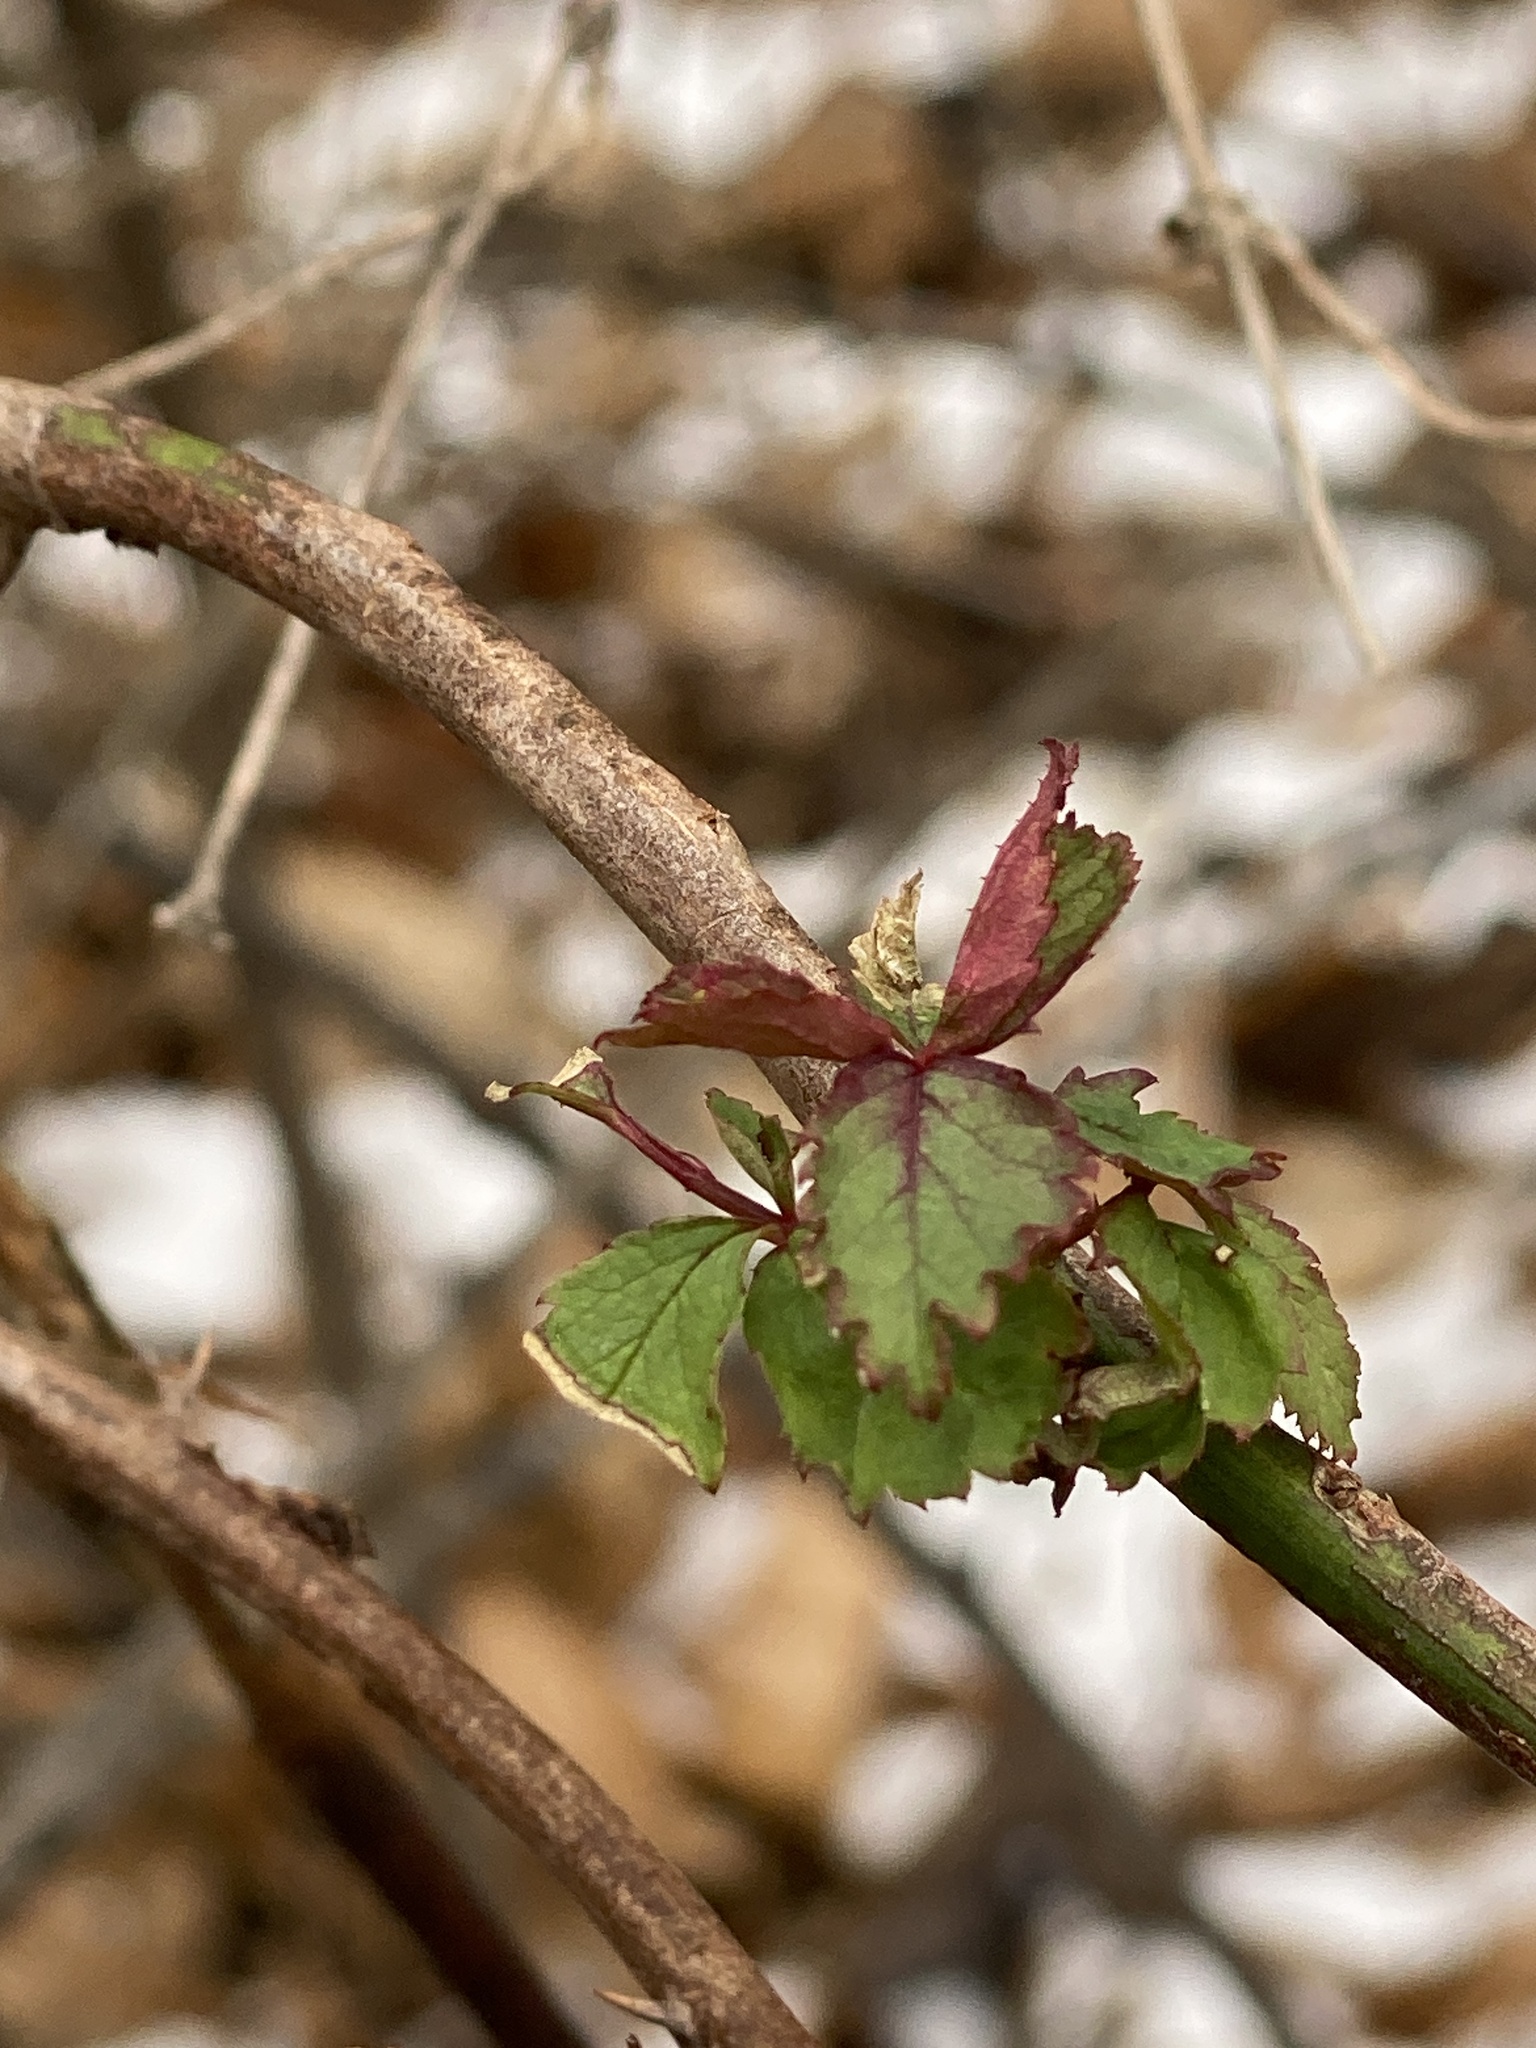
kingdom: Plantae
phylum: Tracheophyta
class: Magnoliopsida
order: Rosales
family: Rosaceae
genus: Rosa
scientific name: Rosa multiflora
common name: Multiflora rose
